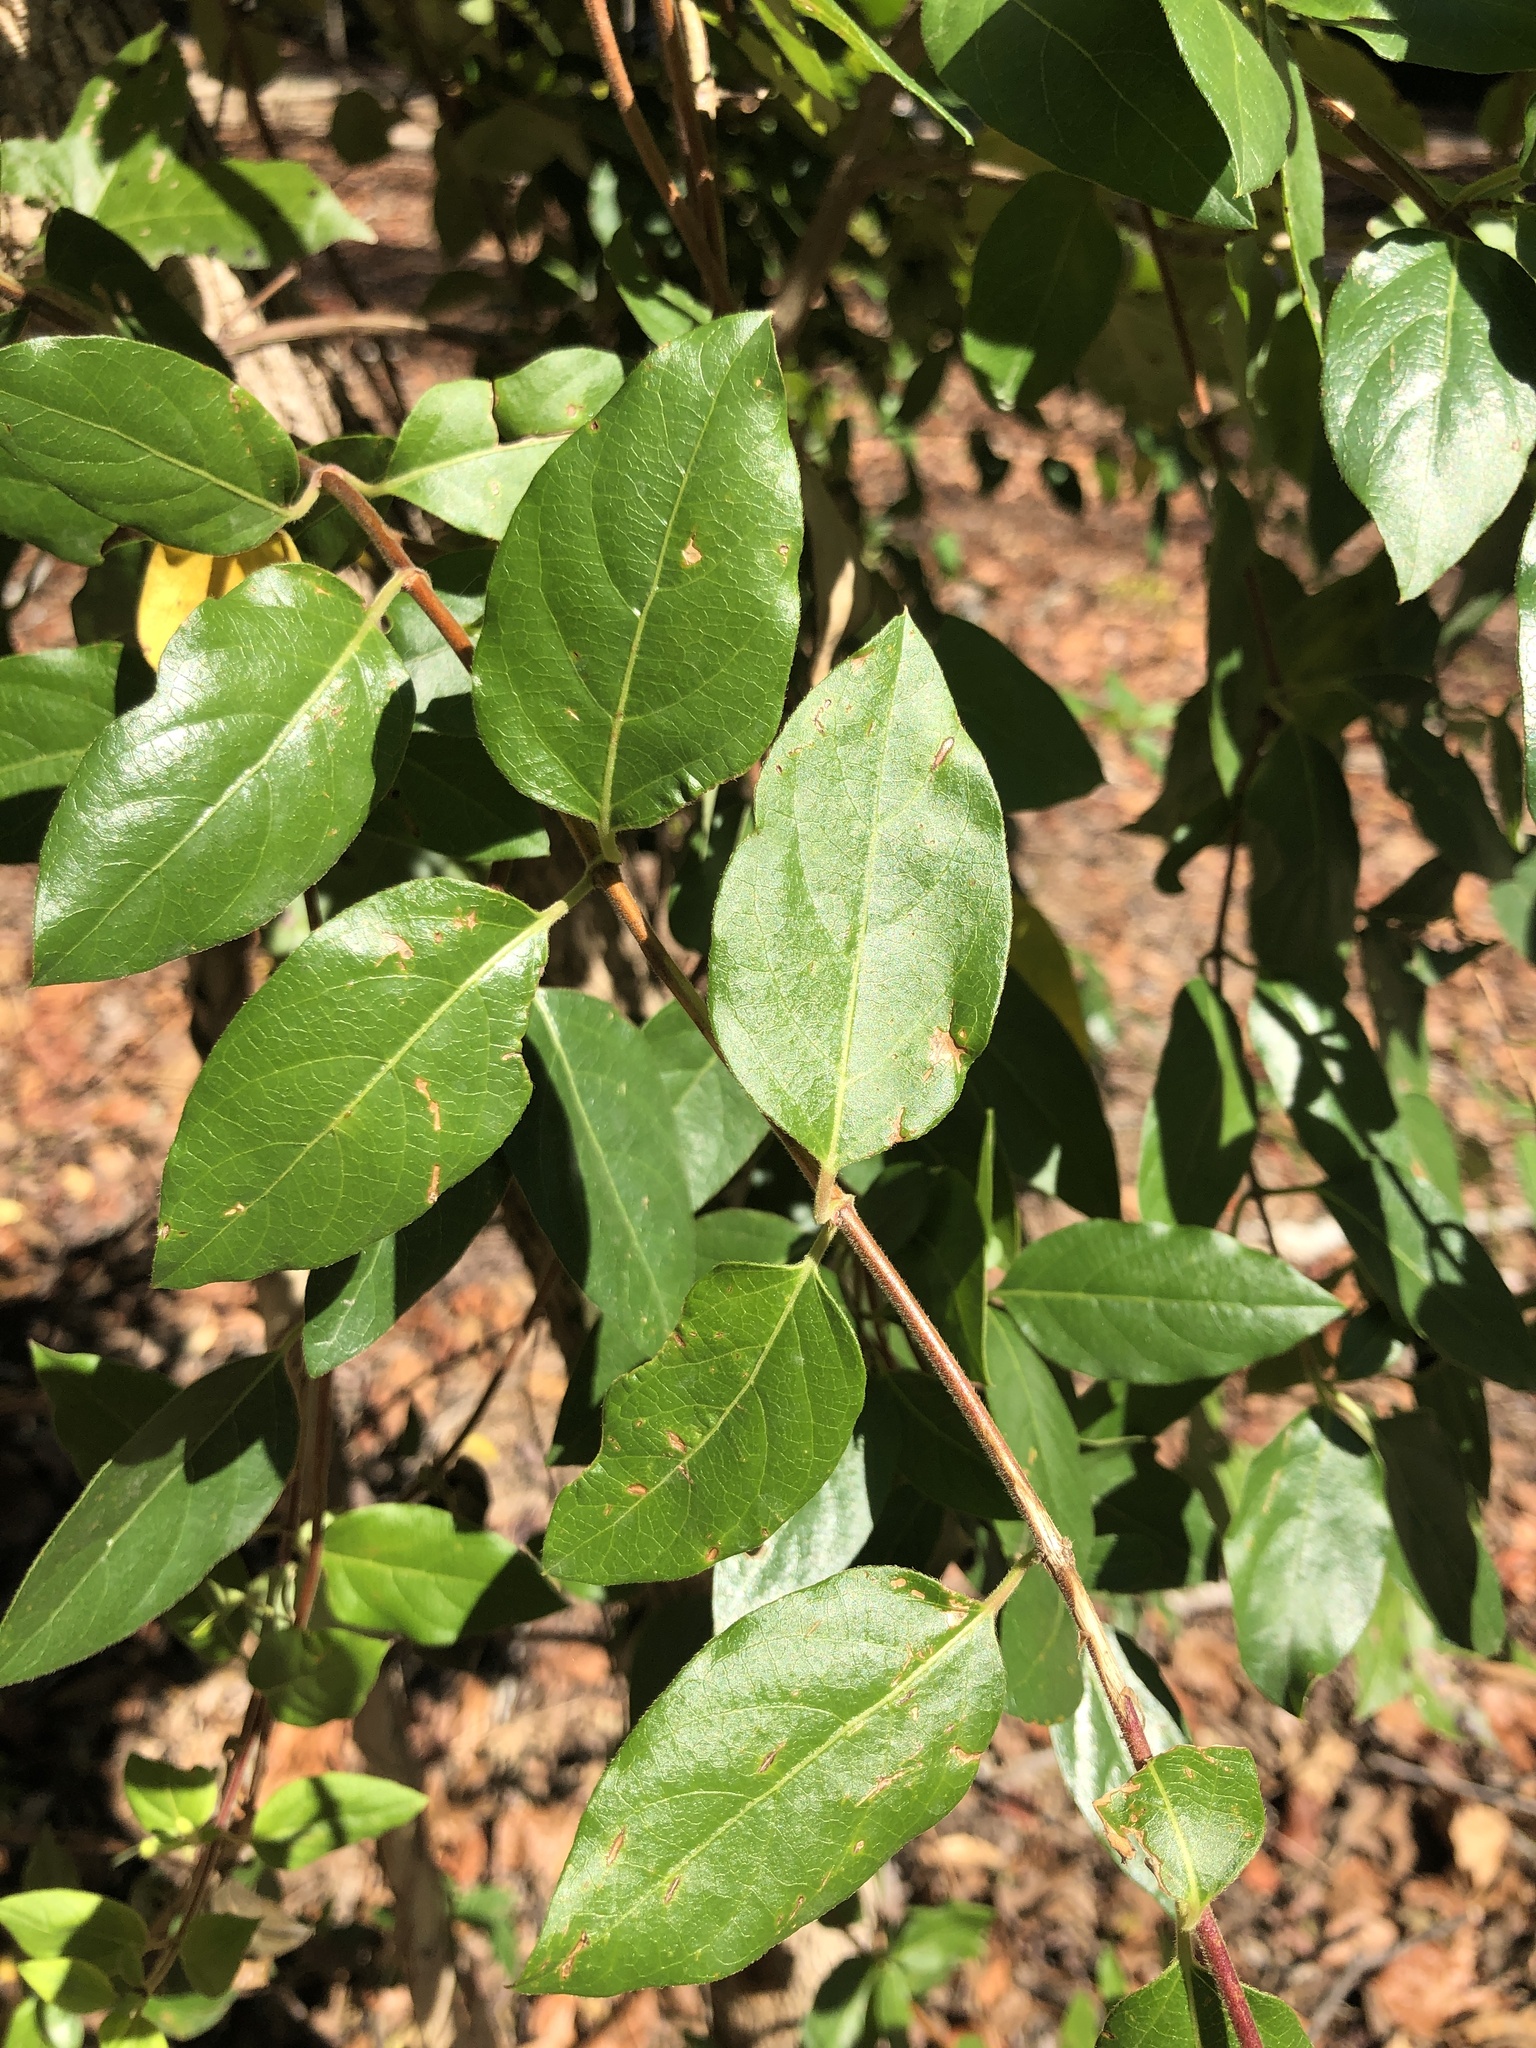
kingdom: Plantae
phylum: Tracheophyta
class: Magnoliopsida
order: Dipsacales
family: Caprifoliaceae
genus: Lonicera
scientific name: Lonicera japonica
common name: Japanese honeysuckle
